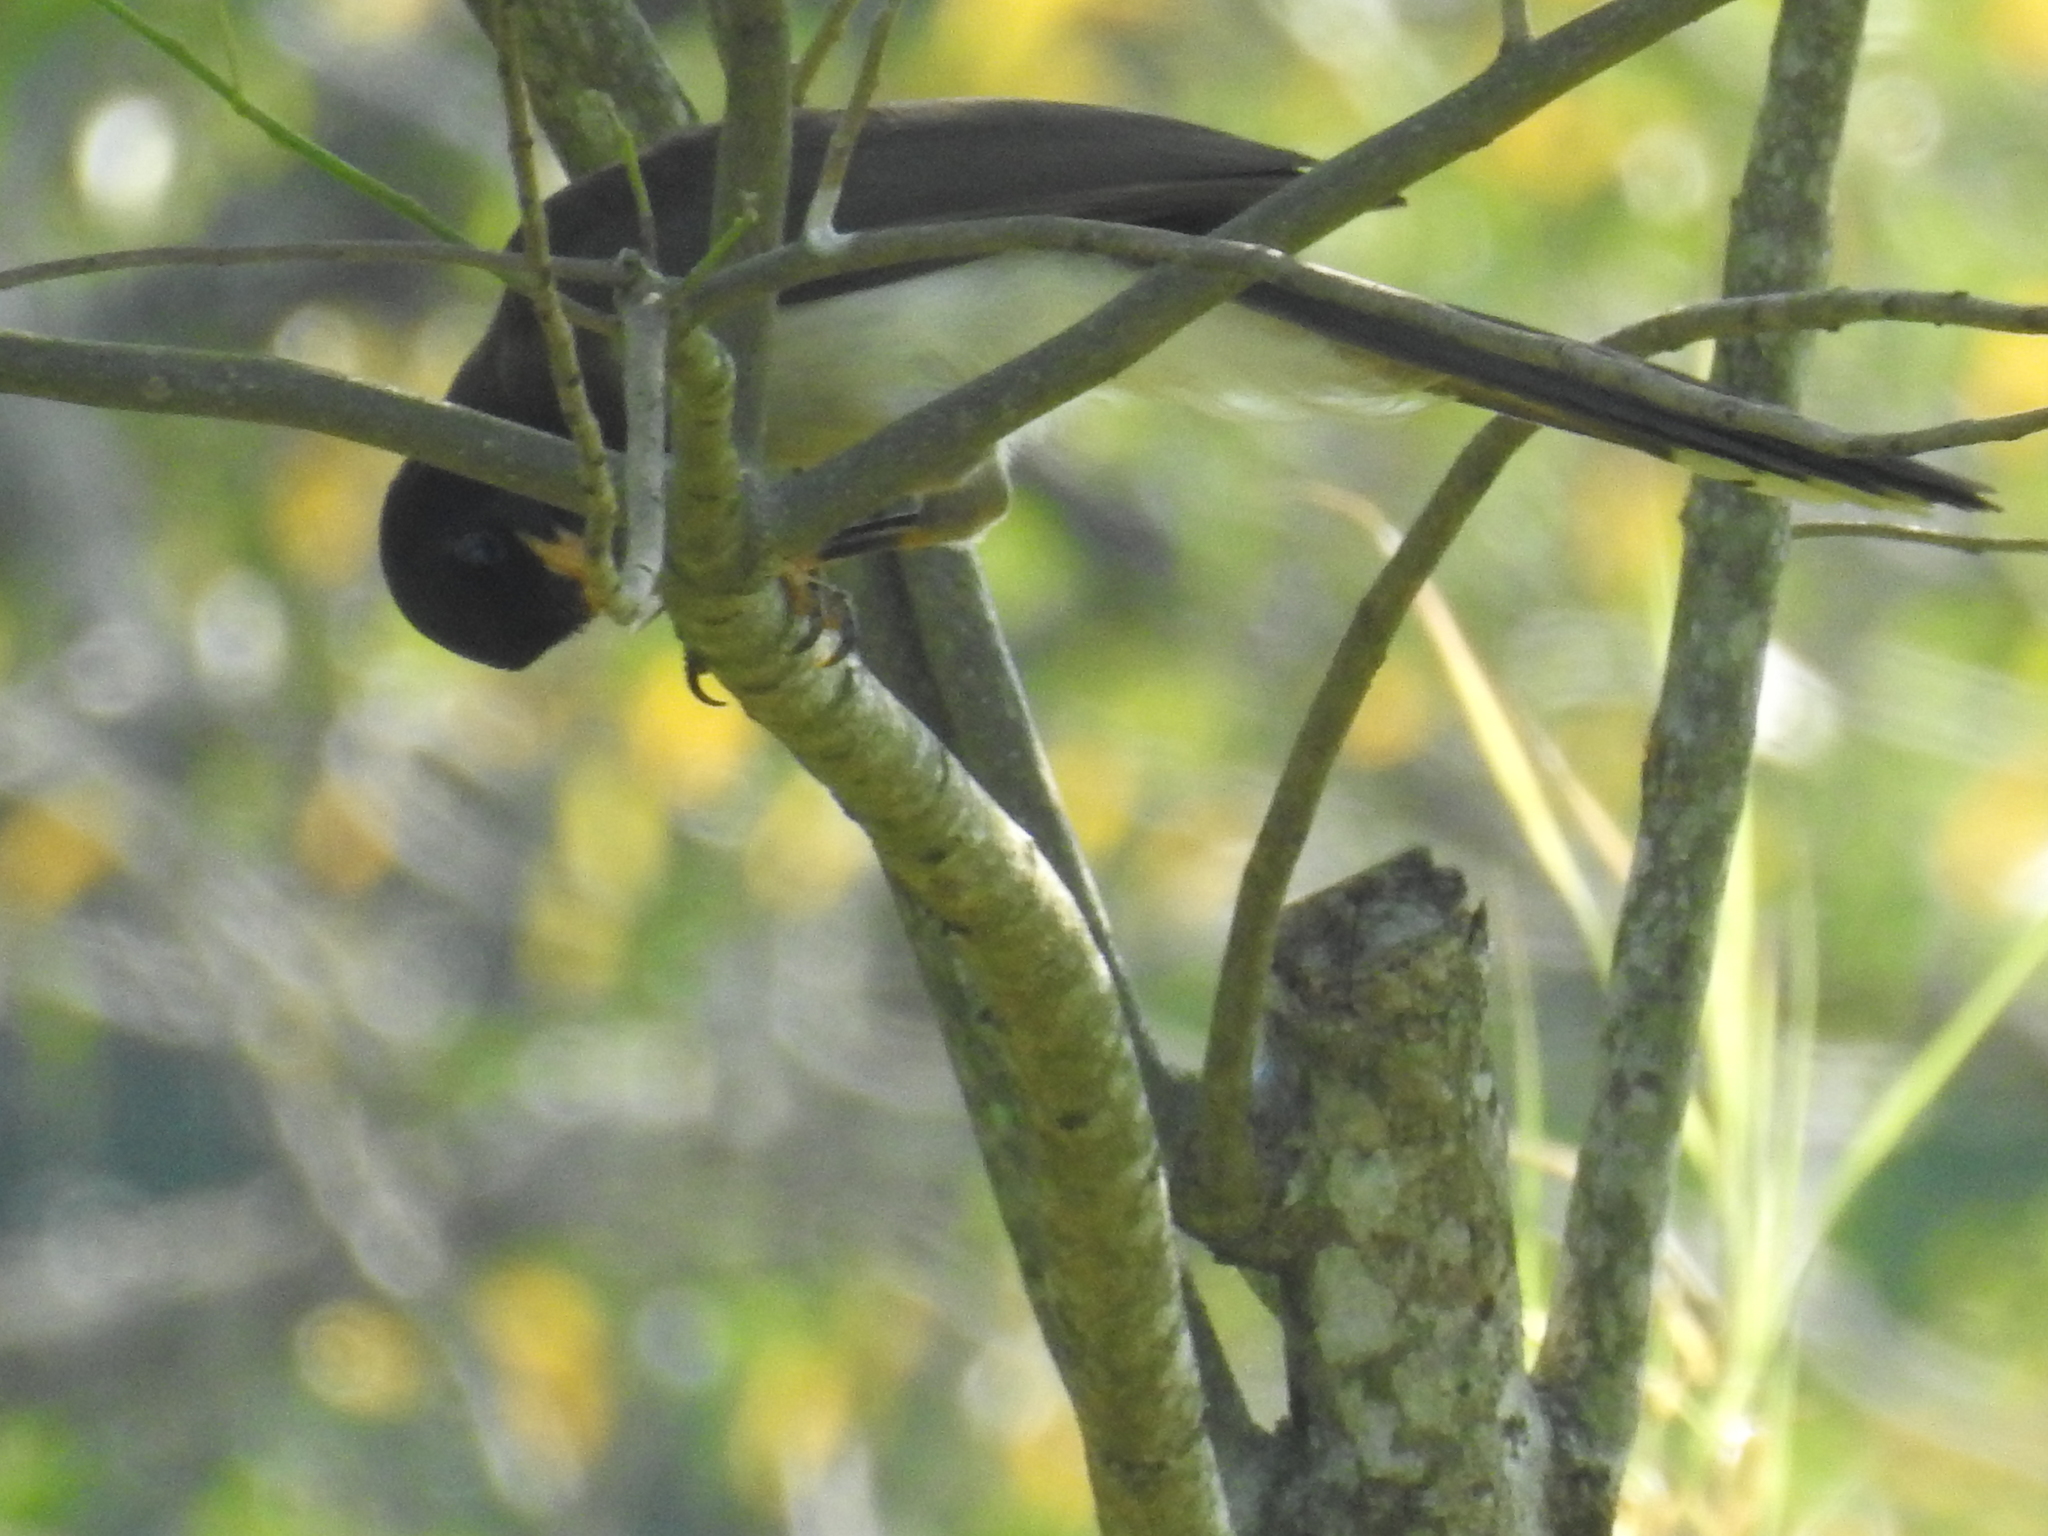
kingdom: Animalia
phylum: Chordata
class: Aves
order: Passeriformes
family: Corvidae
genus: Psilorhinus
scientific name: Psilorhinus morio
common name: Brown jay
